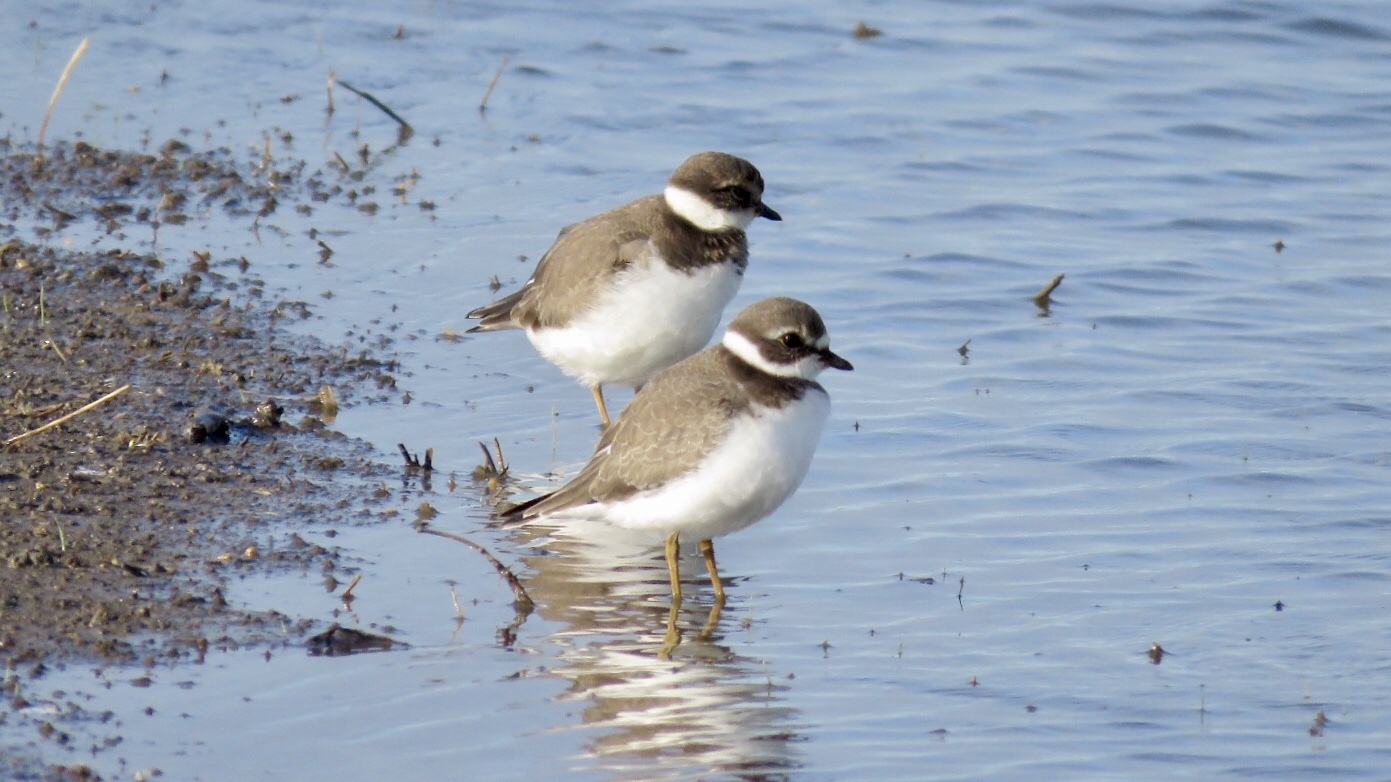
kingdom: Animalia
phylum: Chordata
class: Aves
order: Charadriiformes
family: Charadriidae
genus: Charadrius
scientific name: Charadrius semipalmatus
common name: Semipalmated plover
